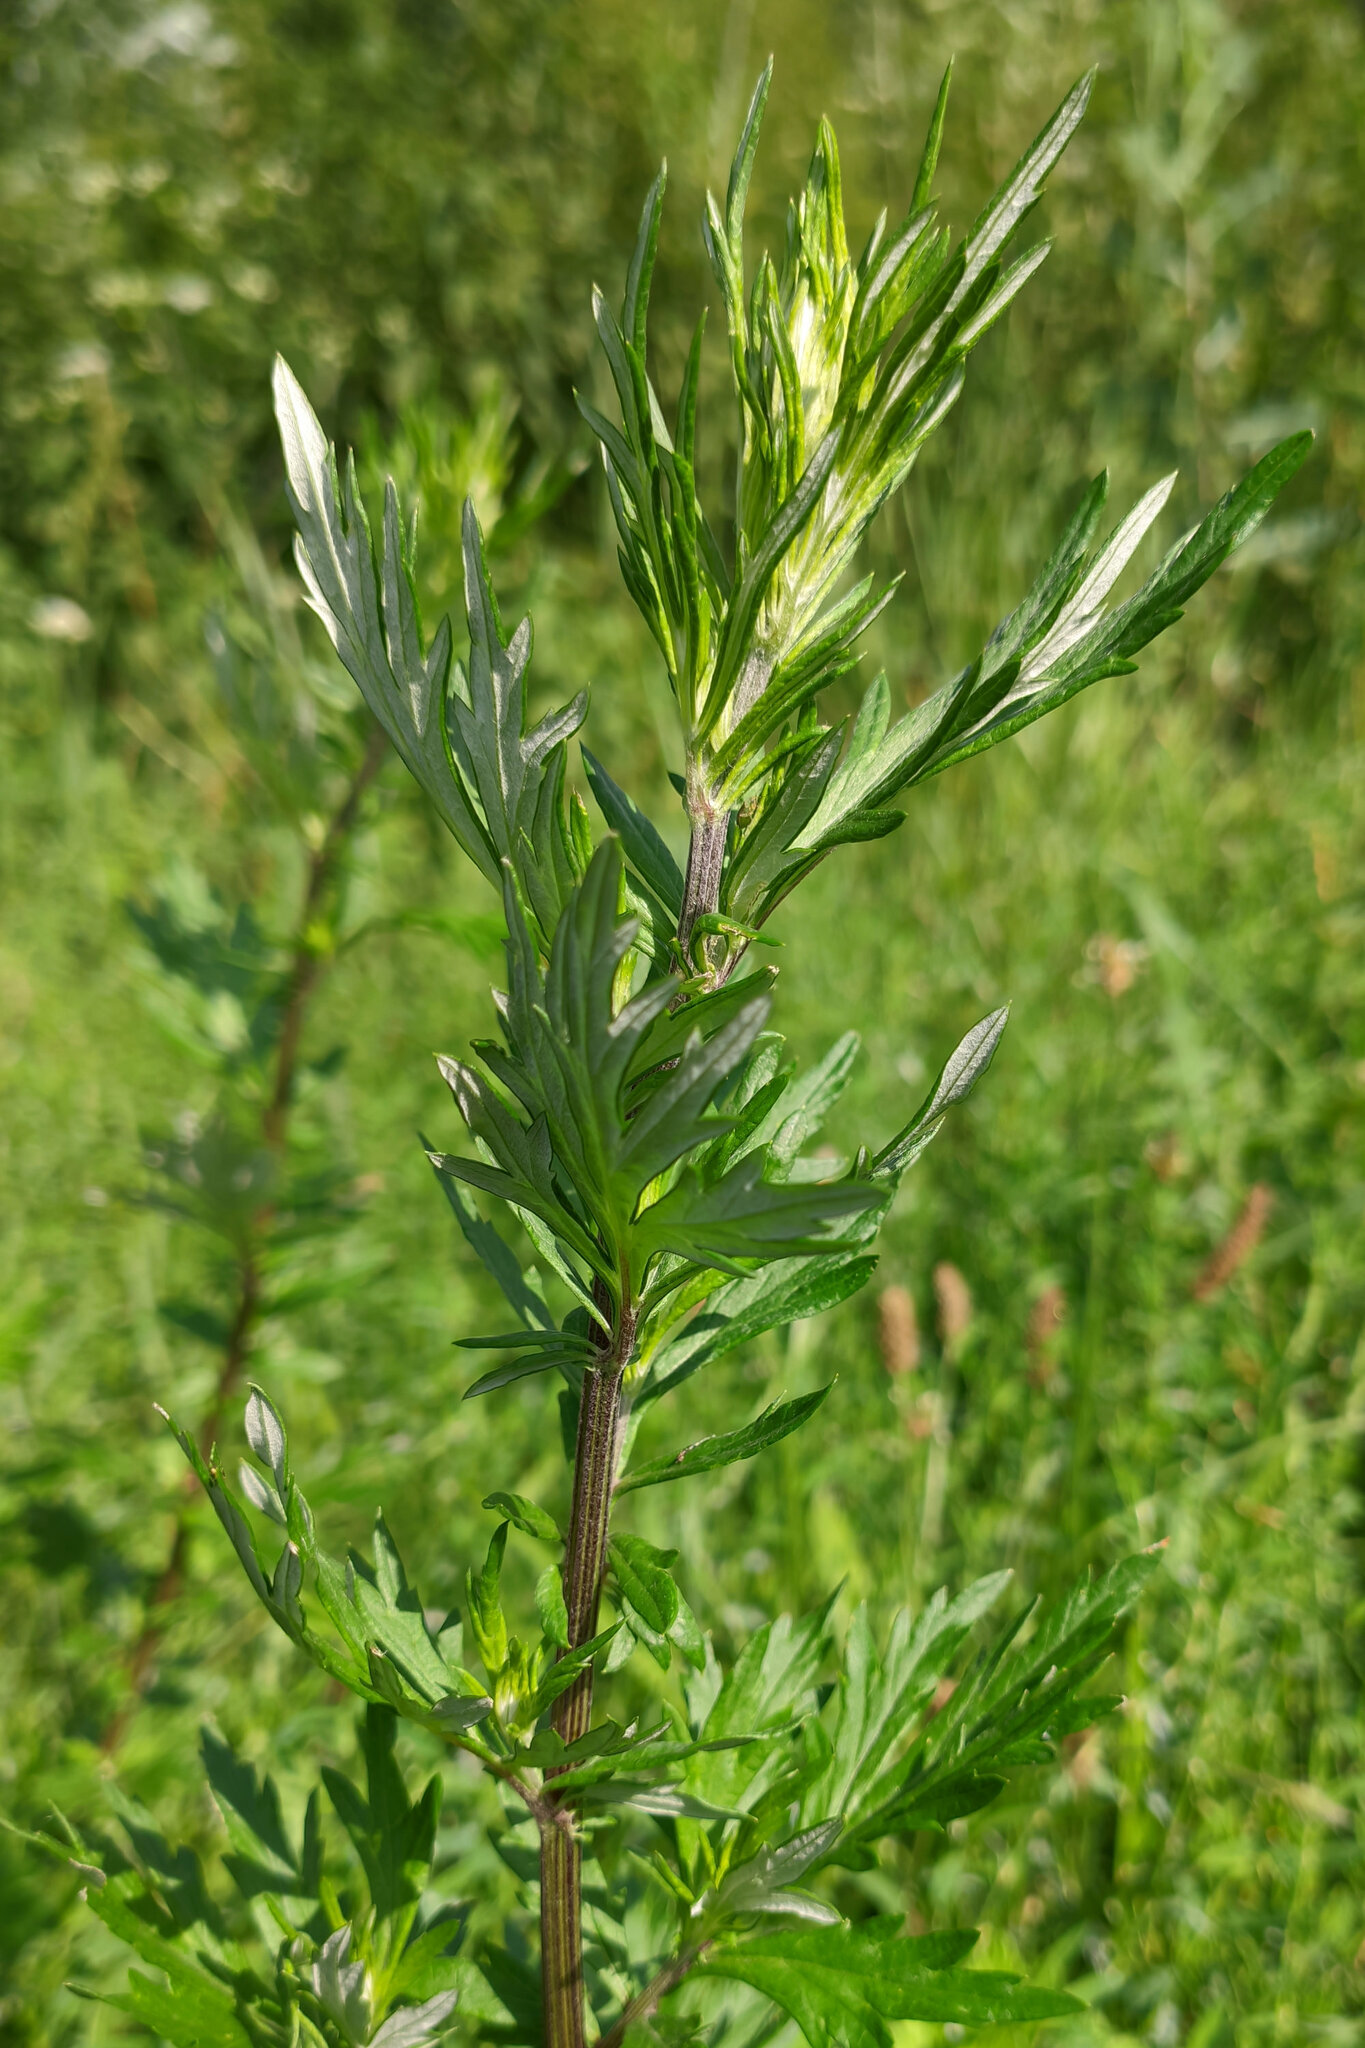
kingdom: Plantae
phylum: Tracheophyta
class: Magnoliopsida
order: Asterales
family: Asteraceae
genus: Artemisia
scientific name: Artemisia vulgaris
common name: Mugwort
